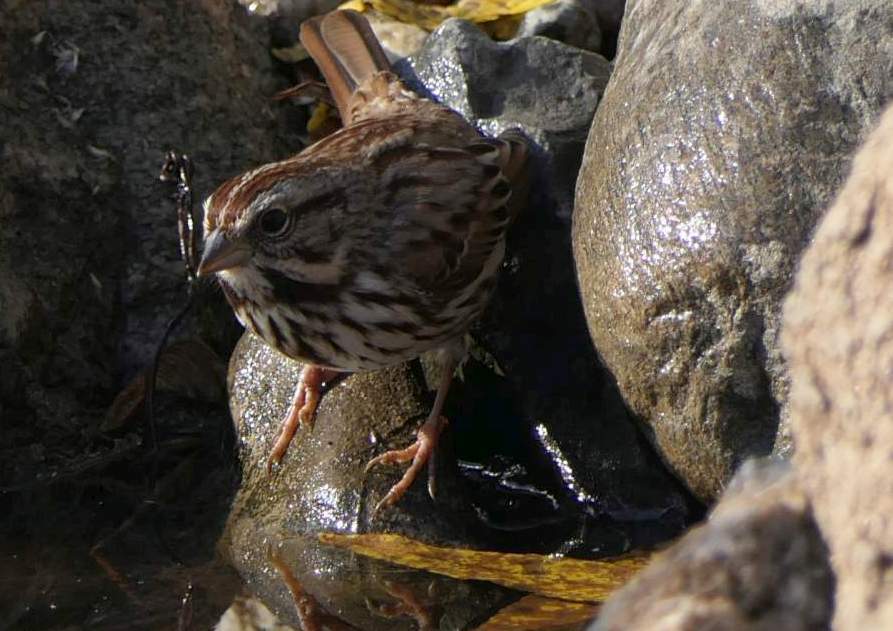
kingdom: Animalia
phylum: Chordata
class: Aves
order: Passeriformes
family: Passerellidae
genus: Melospiza
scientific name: Melospiza melodia
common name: Song sparrow
